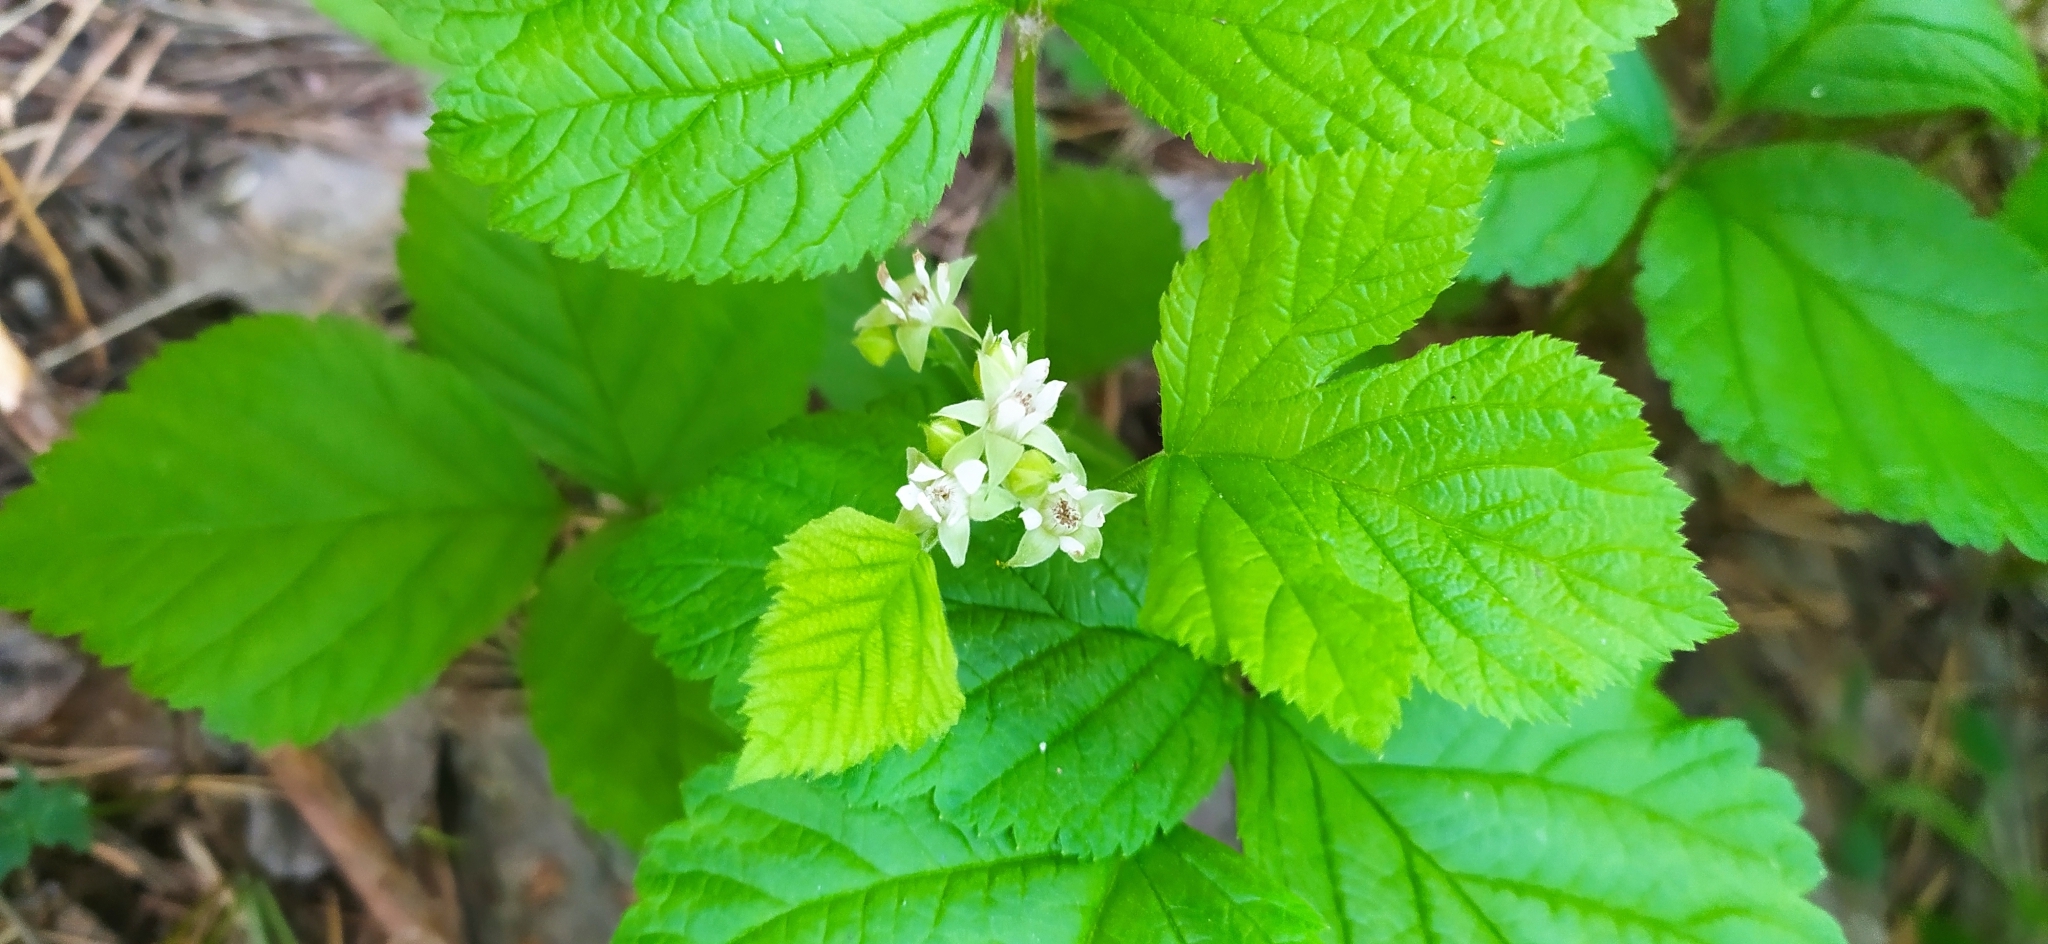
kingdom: Plantae
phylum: Tracheophyta
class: Magnoliopsida
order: Rosales
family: Rosaceae
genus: Rubus
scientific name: Rubus saxatilis
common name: Stone bramble
